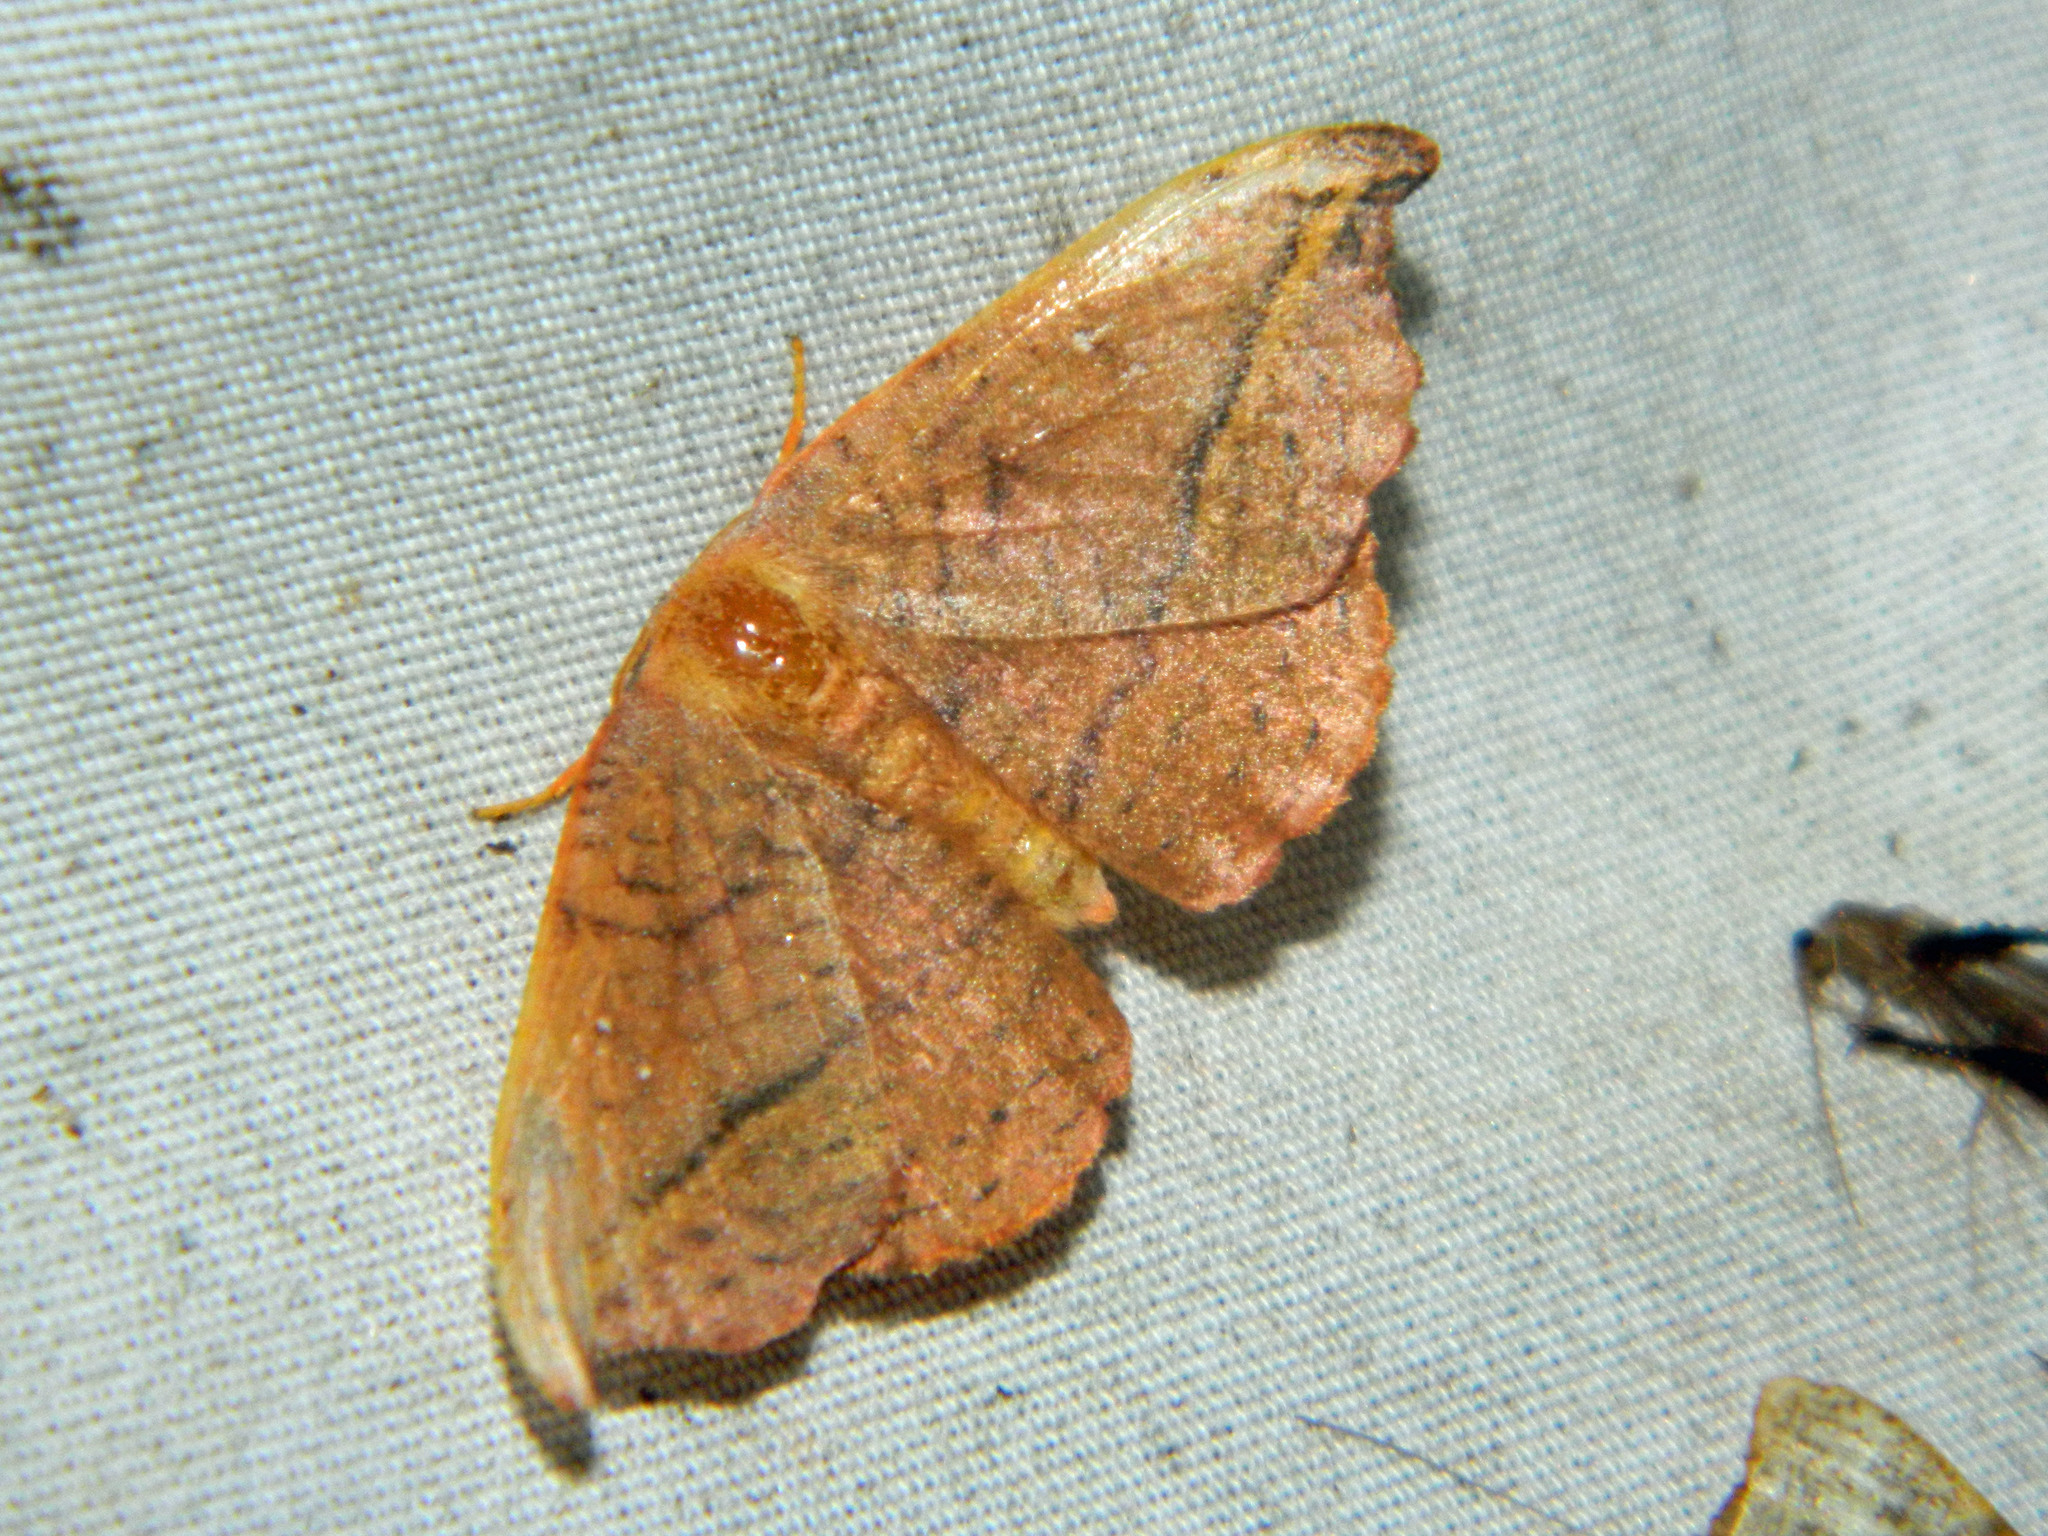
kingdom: Animalia
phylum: Arthropoda
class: Insecta
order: Lepidoptera
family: Drepanidae
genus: Oreta
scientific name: Oreta rosea
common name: Rose hooktip
